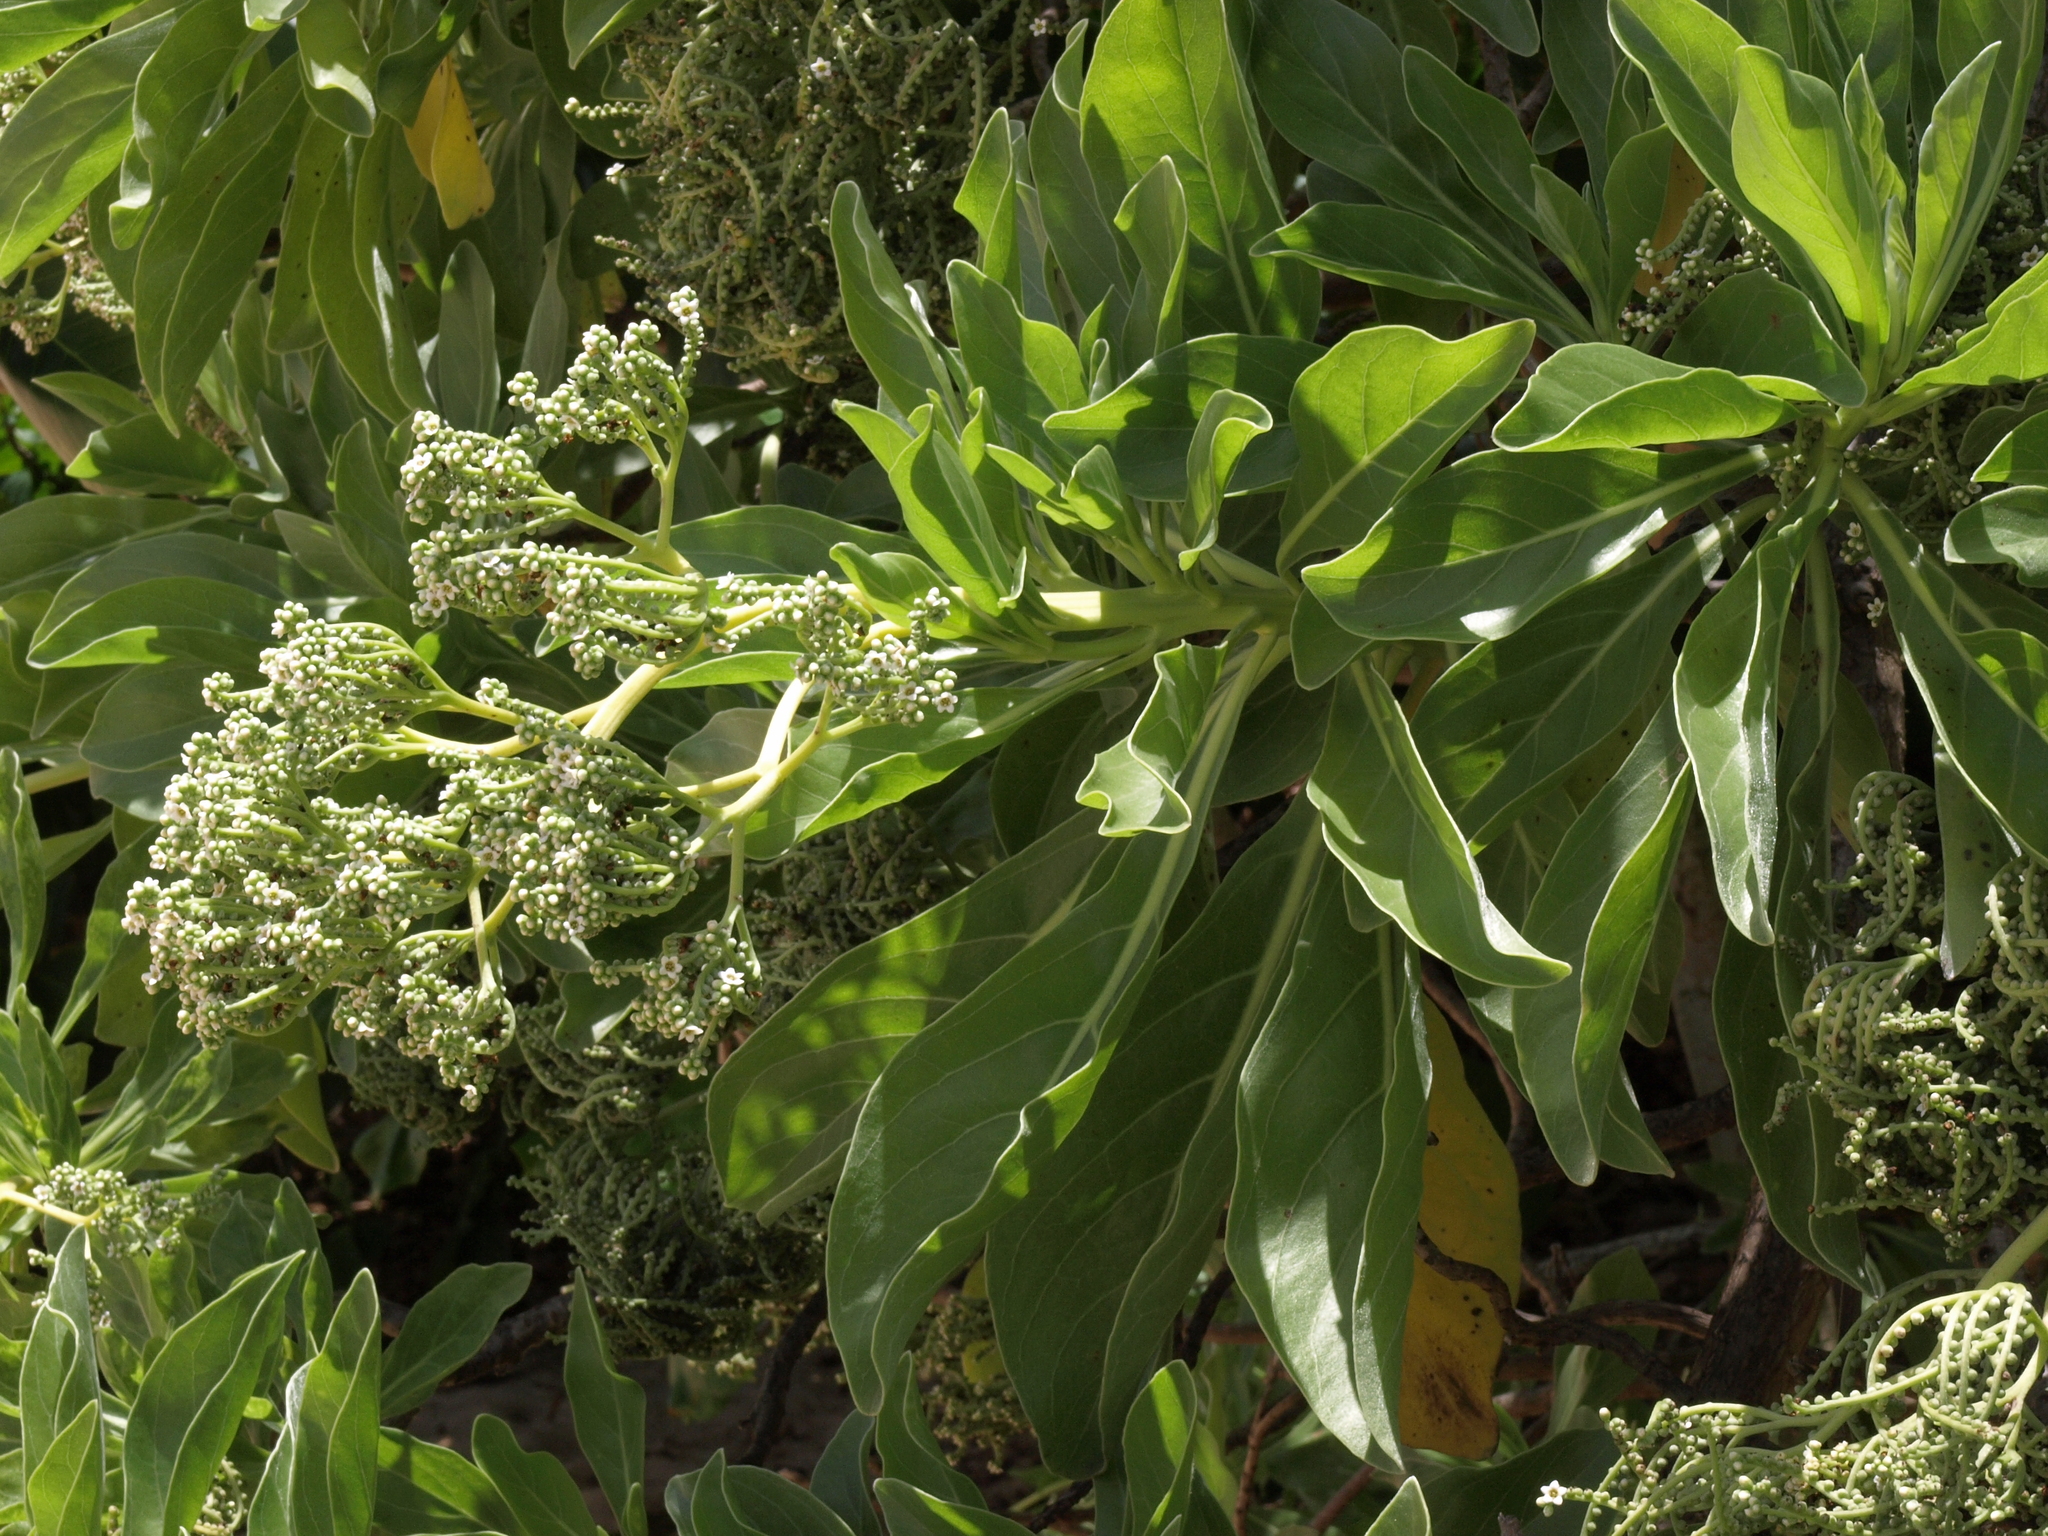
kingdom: Plantae
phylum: Tracheophyta
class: Magnoliopsida
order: Boraginales
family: Heliotropiaceae
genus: Heliotropium
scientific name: Heliotropium velutinum
